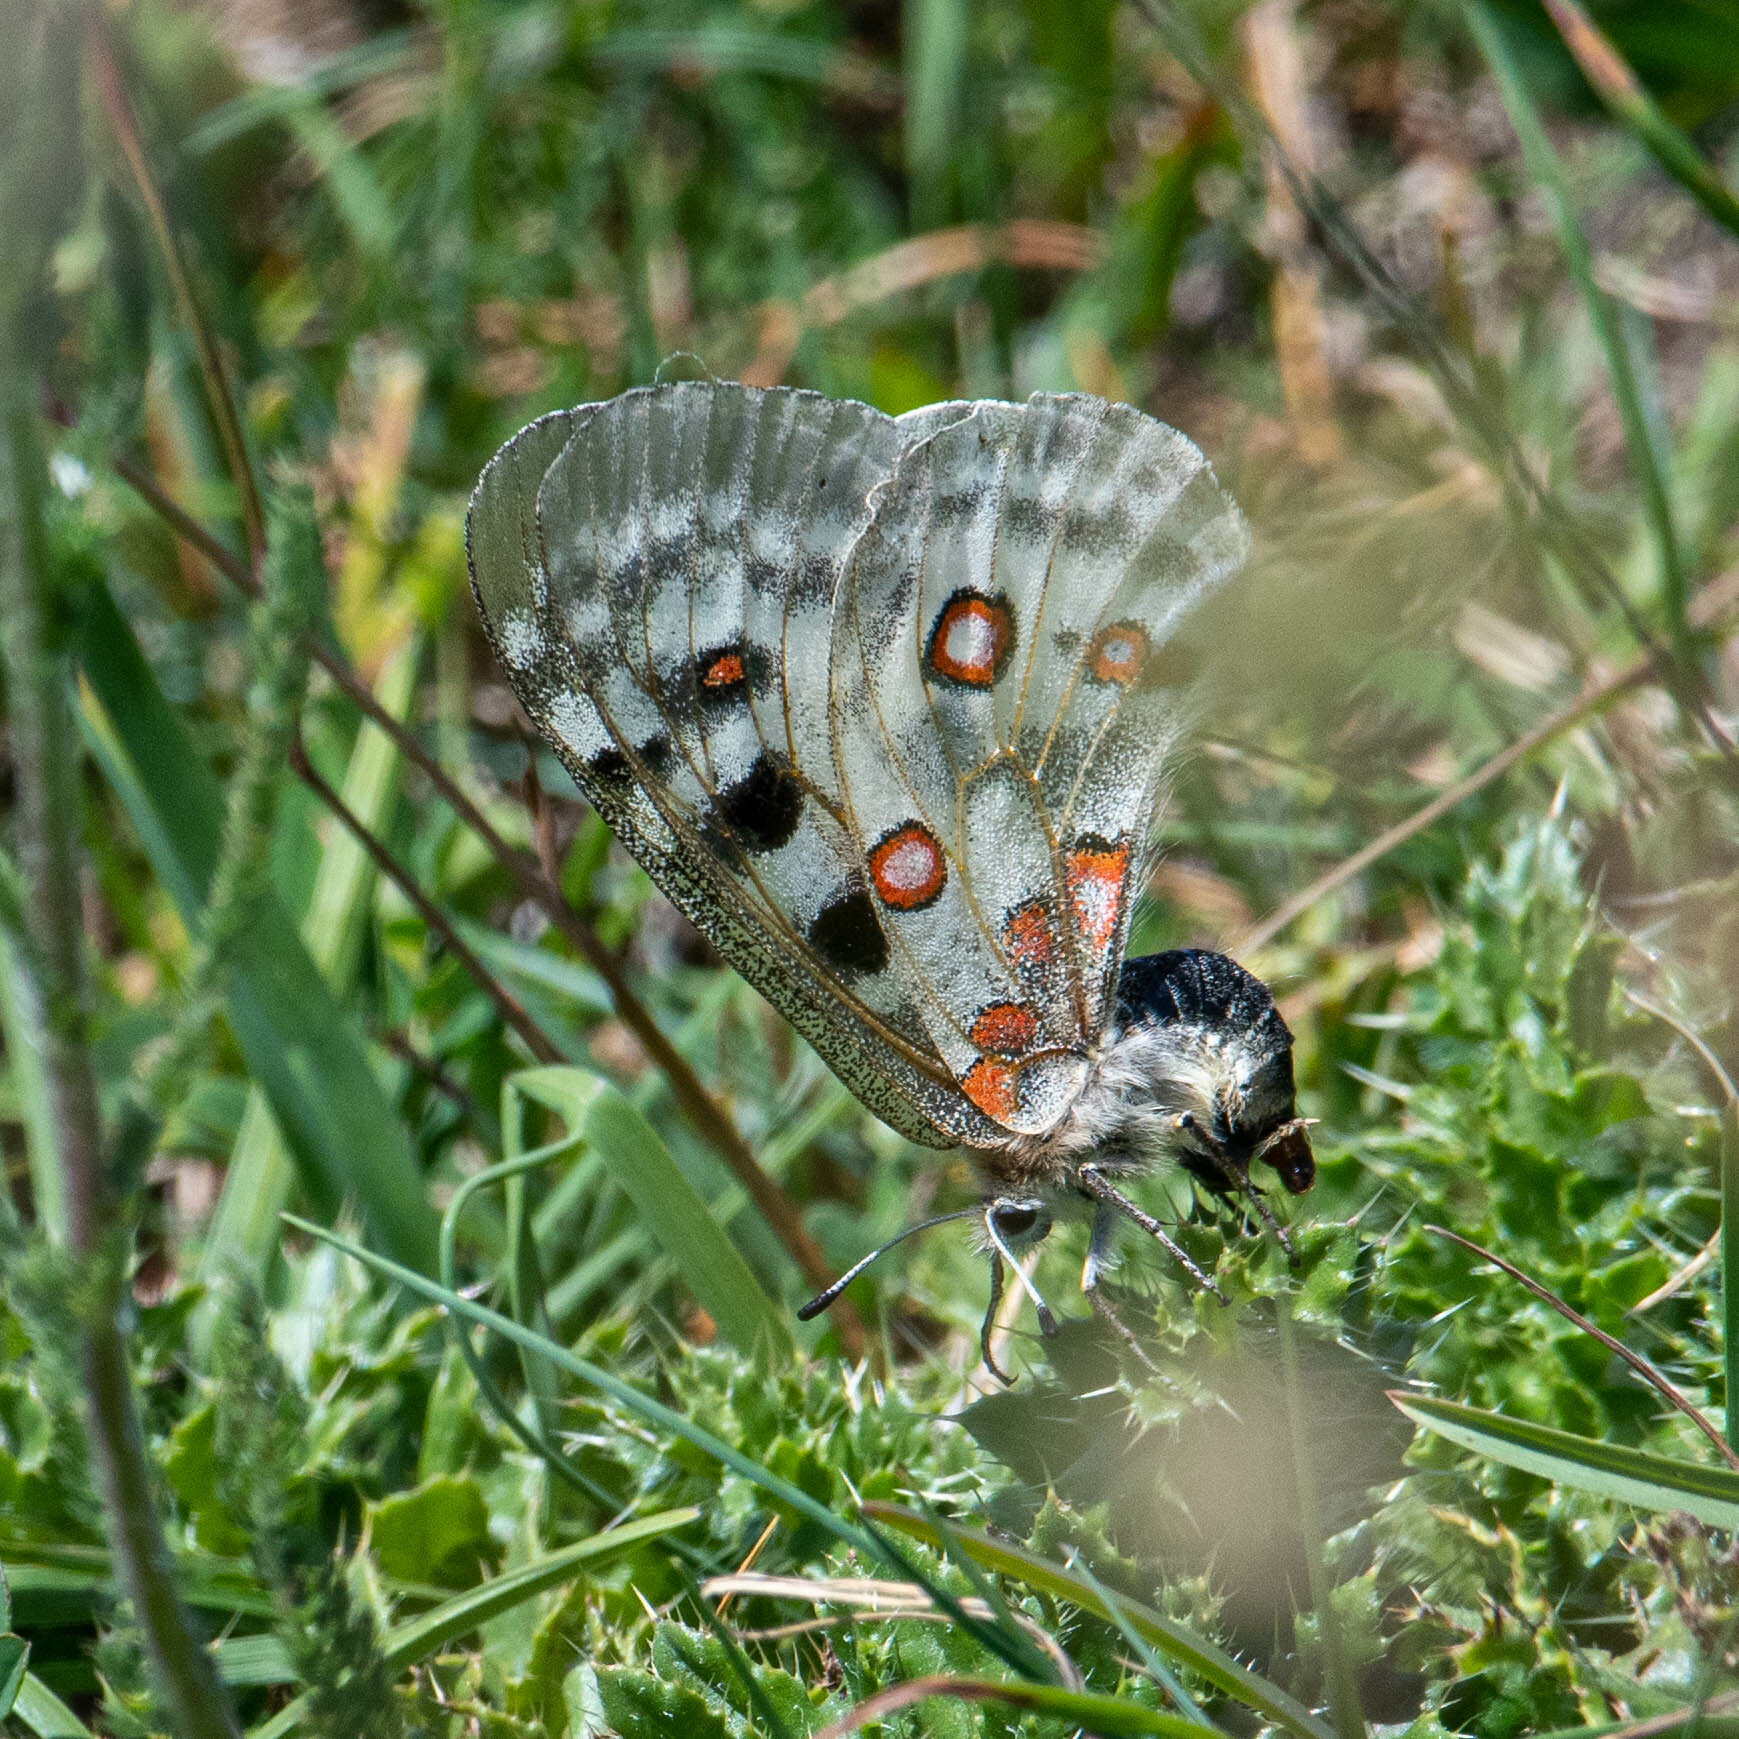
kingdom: Animalia
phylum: Arthropoda
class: Insecta
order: Lepidoptera
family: Papilionidae
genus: Parnassius
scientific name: Parnassius apollo
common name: Apollo
